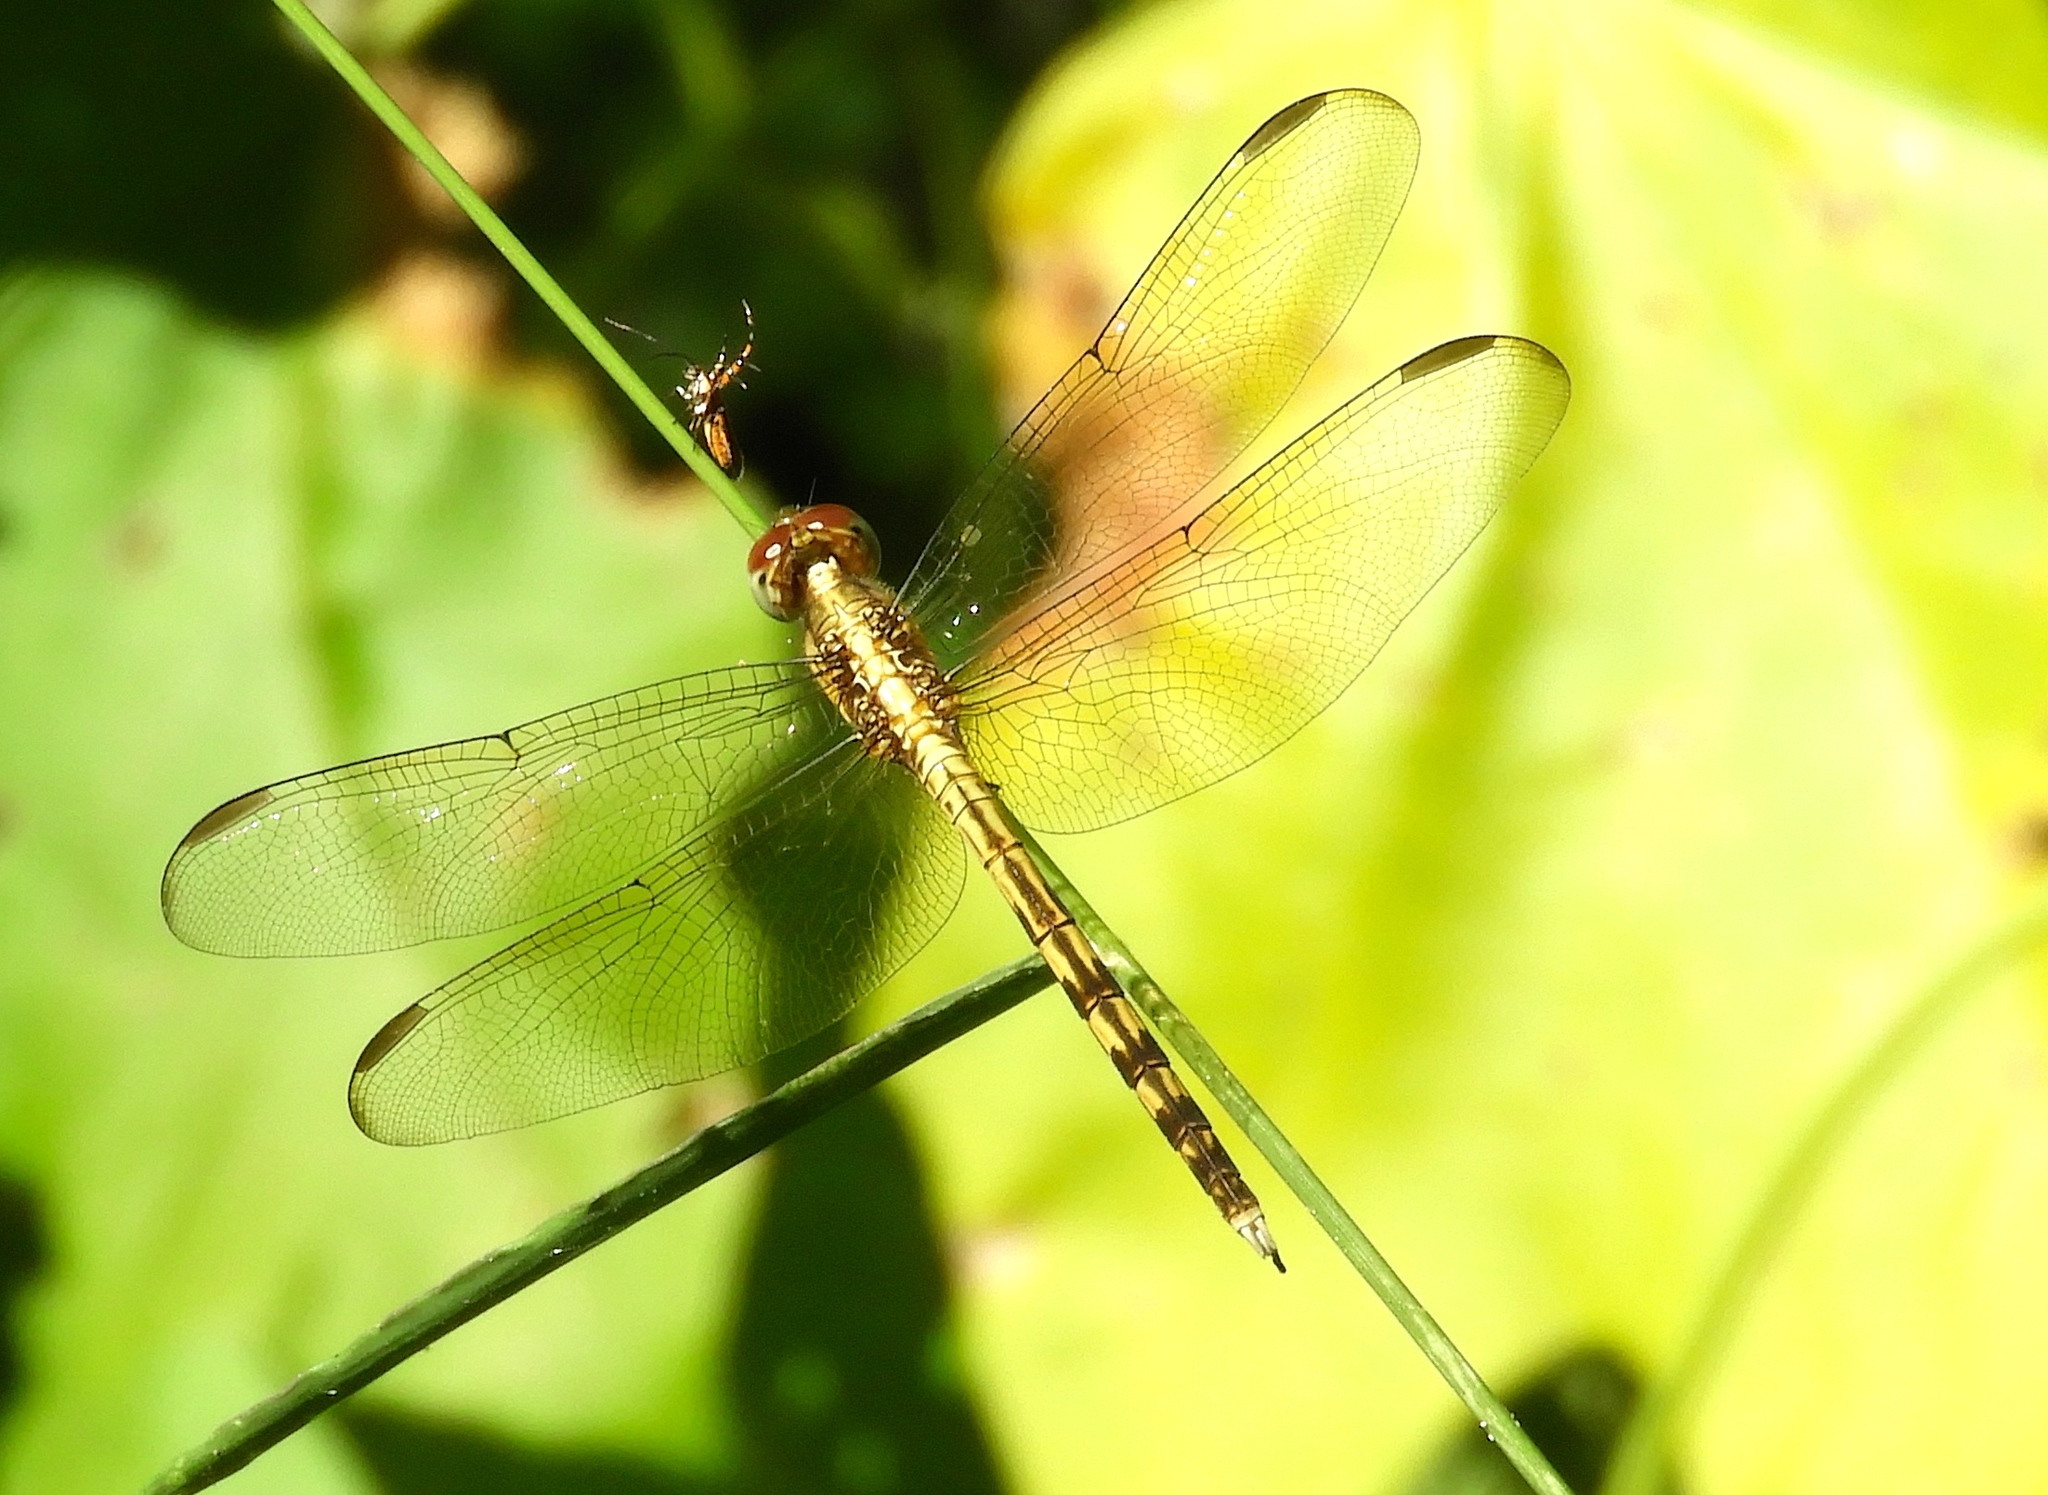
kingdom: Animalia
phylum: Arthropoda
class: Insecta
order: Odonata
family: Libellulidae
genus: Erythrodiplax
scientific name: Erythrodiplax funerea
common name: Black-winged dragonlet
